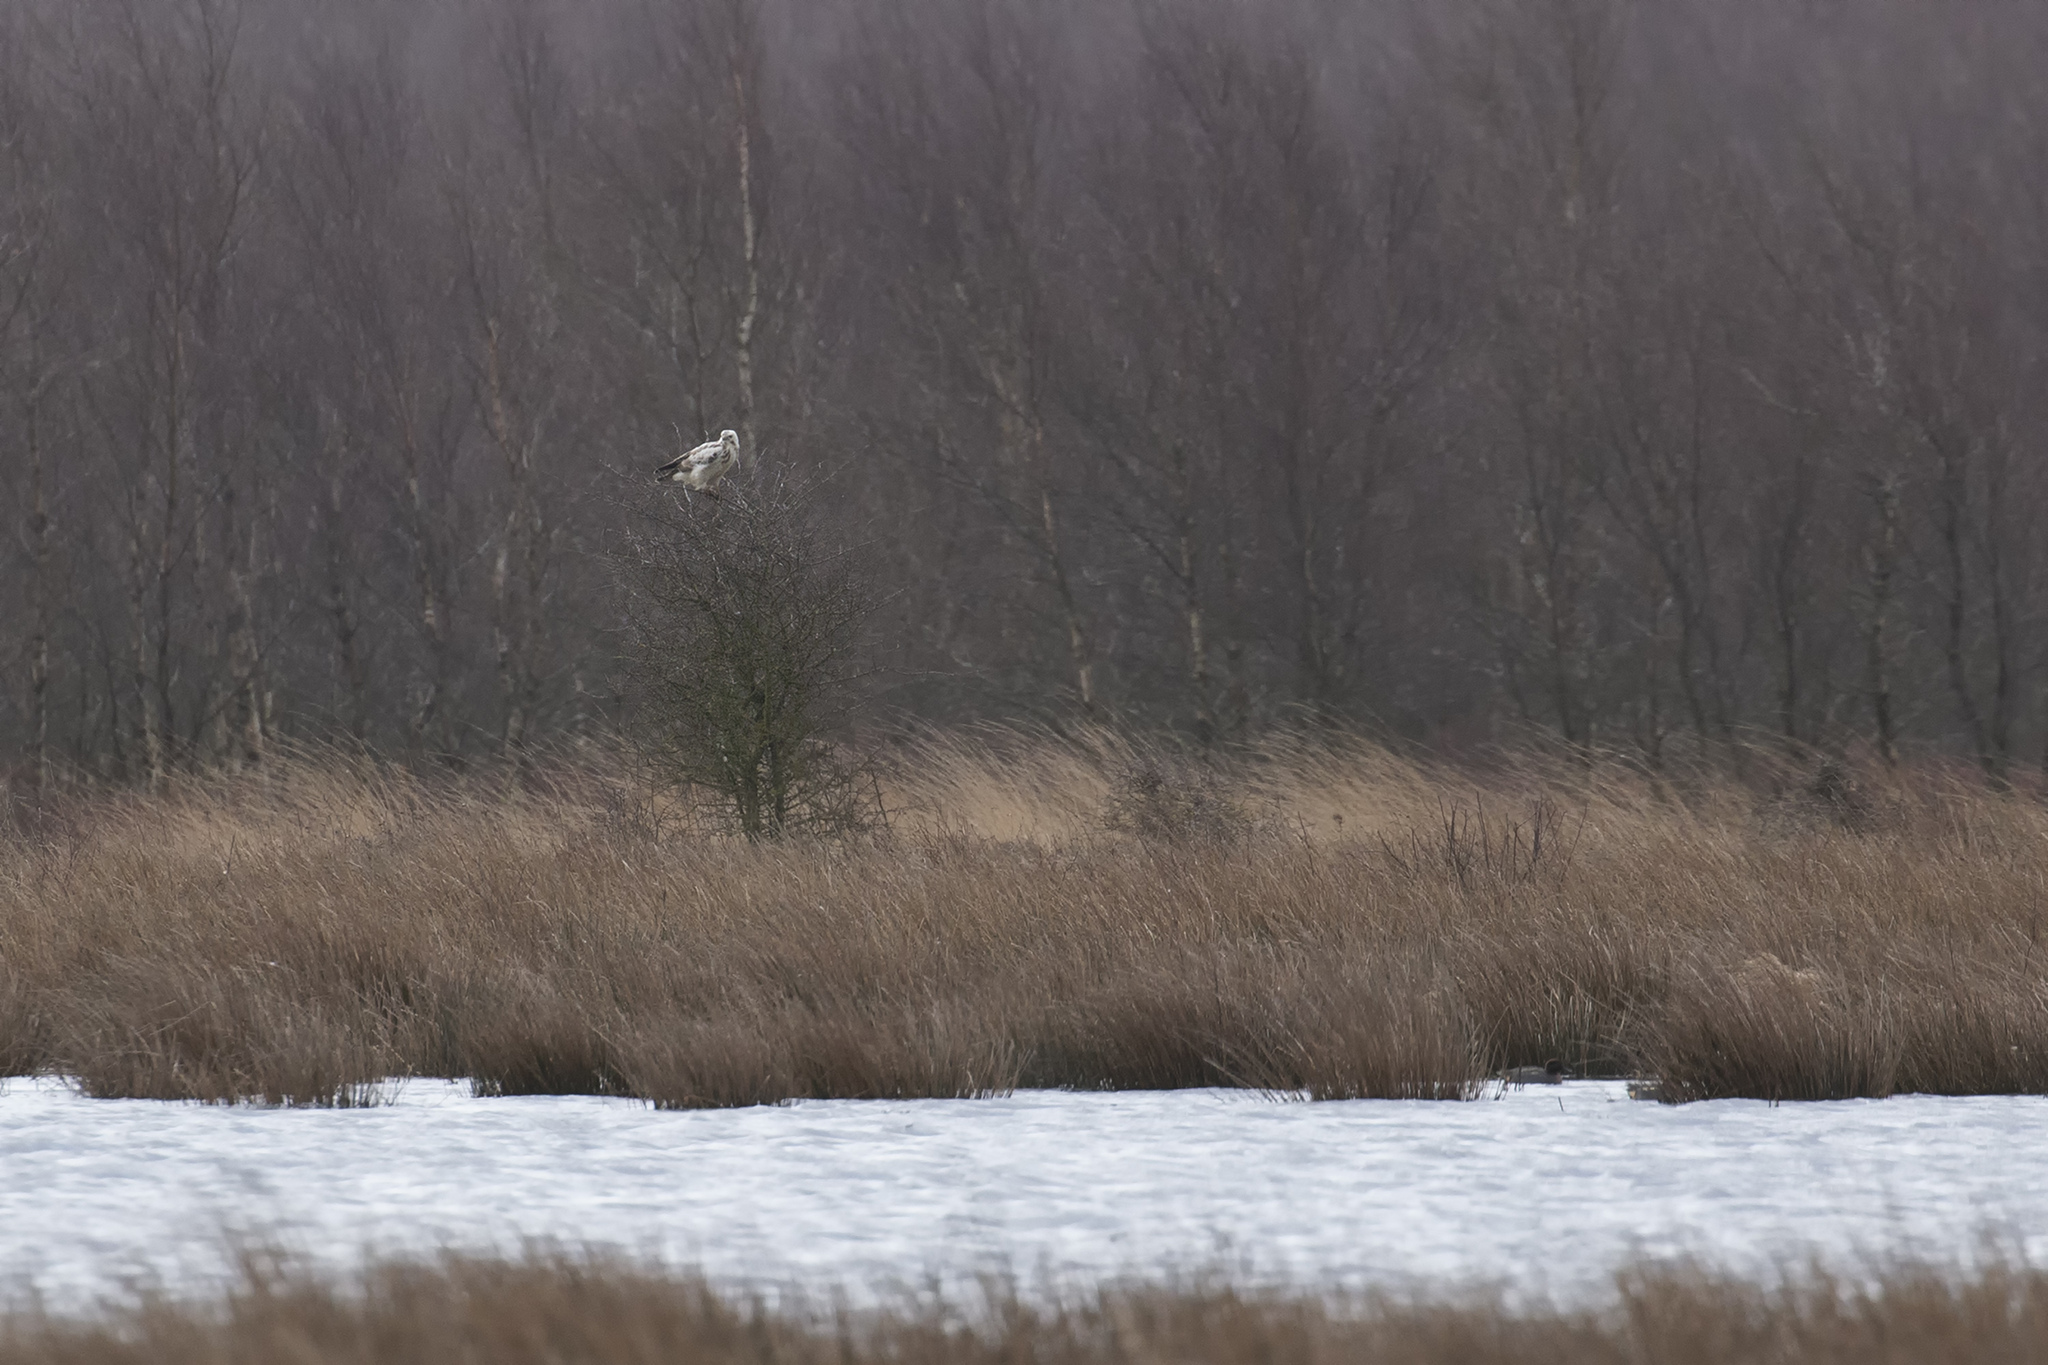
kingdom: Animalia
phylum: Chordata
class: Aves
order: Accipitriformes
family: Accipitridae
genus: Buteo
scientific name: Buteo buteo
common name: Common buzzard
